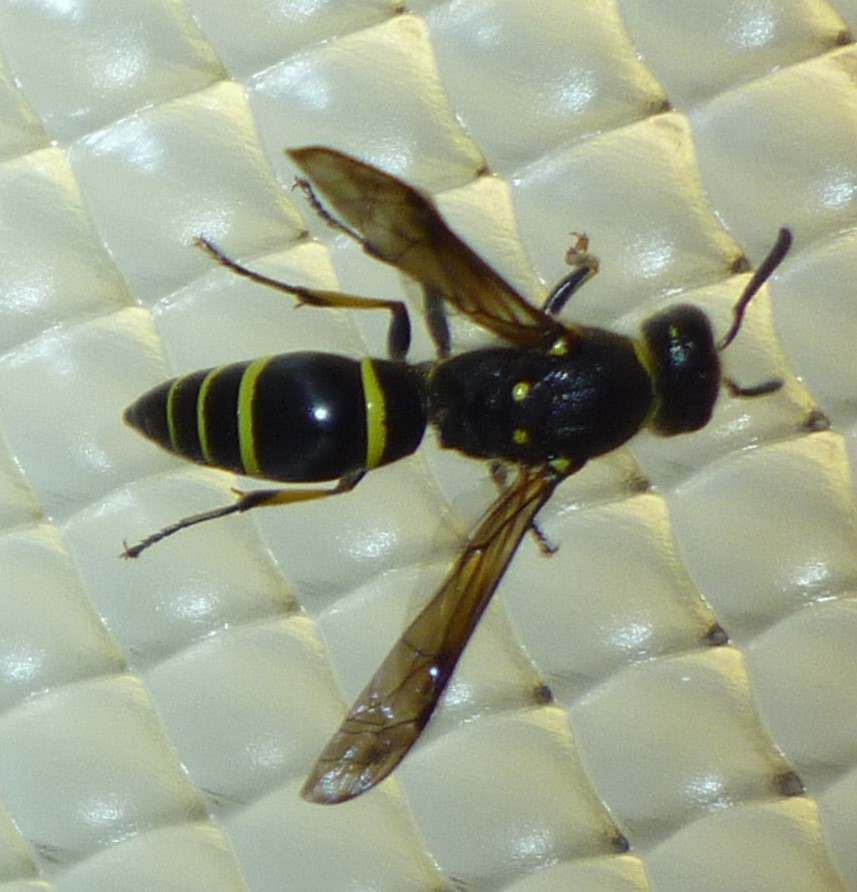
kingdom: Animalia
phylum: Arthropoda
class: Insecta
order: Hymenoptera
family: Vespidae
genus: Ancistrocerus
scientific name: Ancistrocerus
